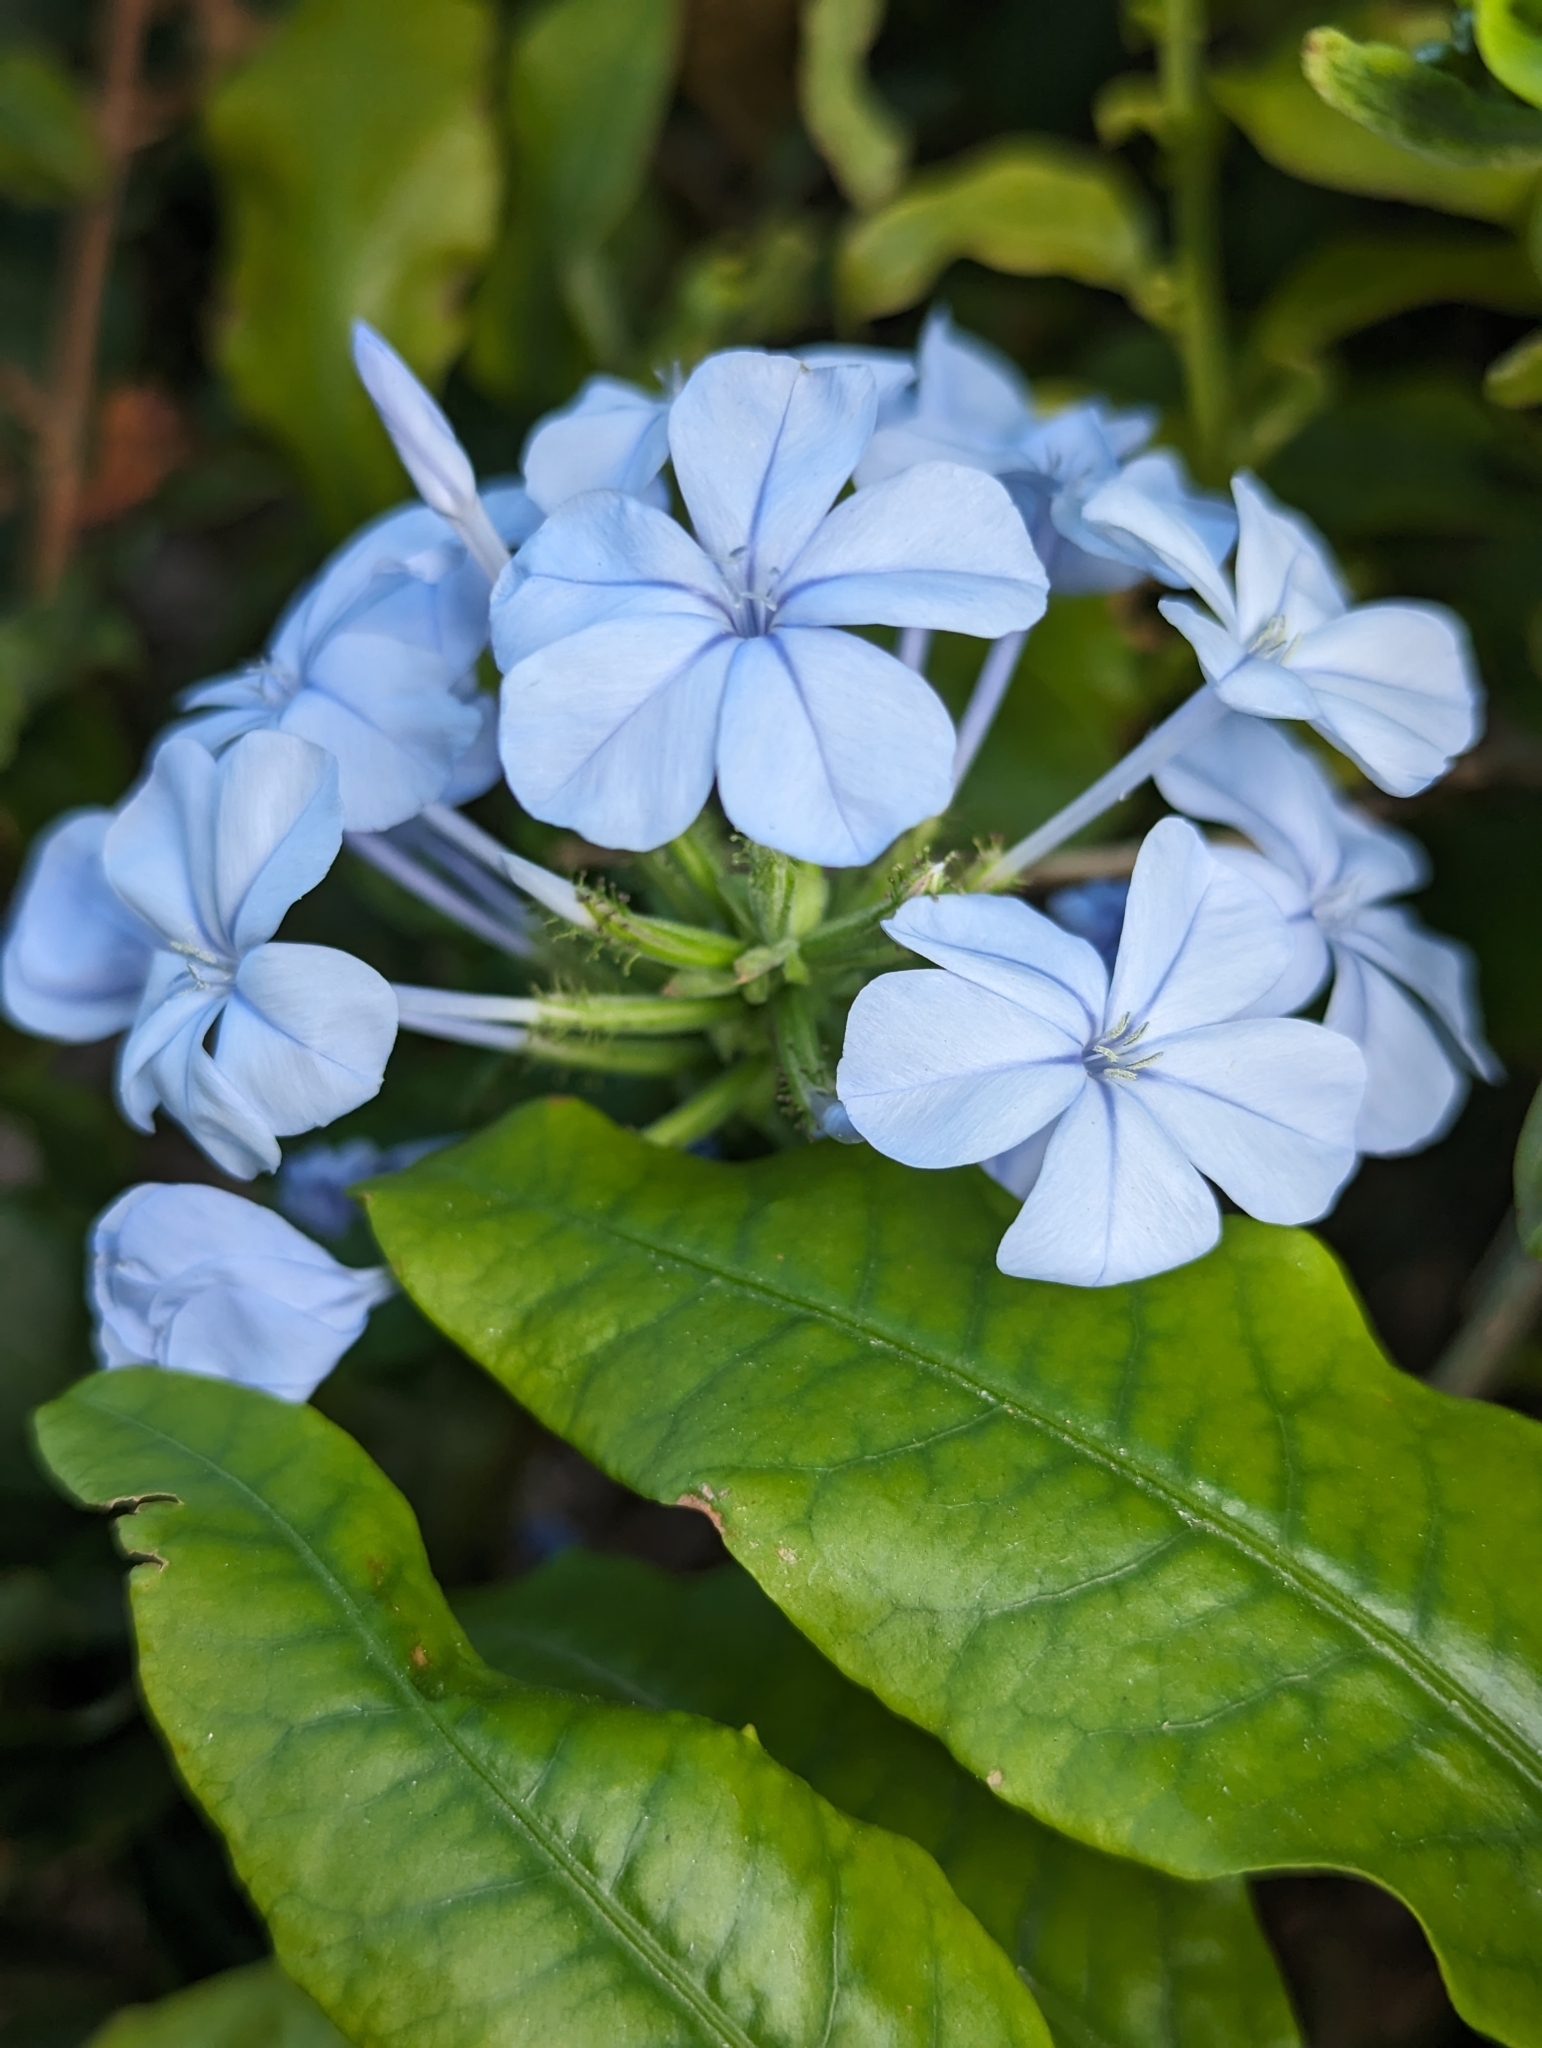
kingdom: Plantae
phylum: Tracheophyta
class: Magnoliopsida
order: Caryophyllales
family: Plumbaginaceae
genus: Plumbago
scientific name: Plumbago auriculata
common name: Cape leadwort
